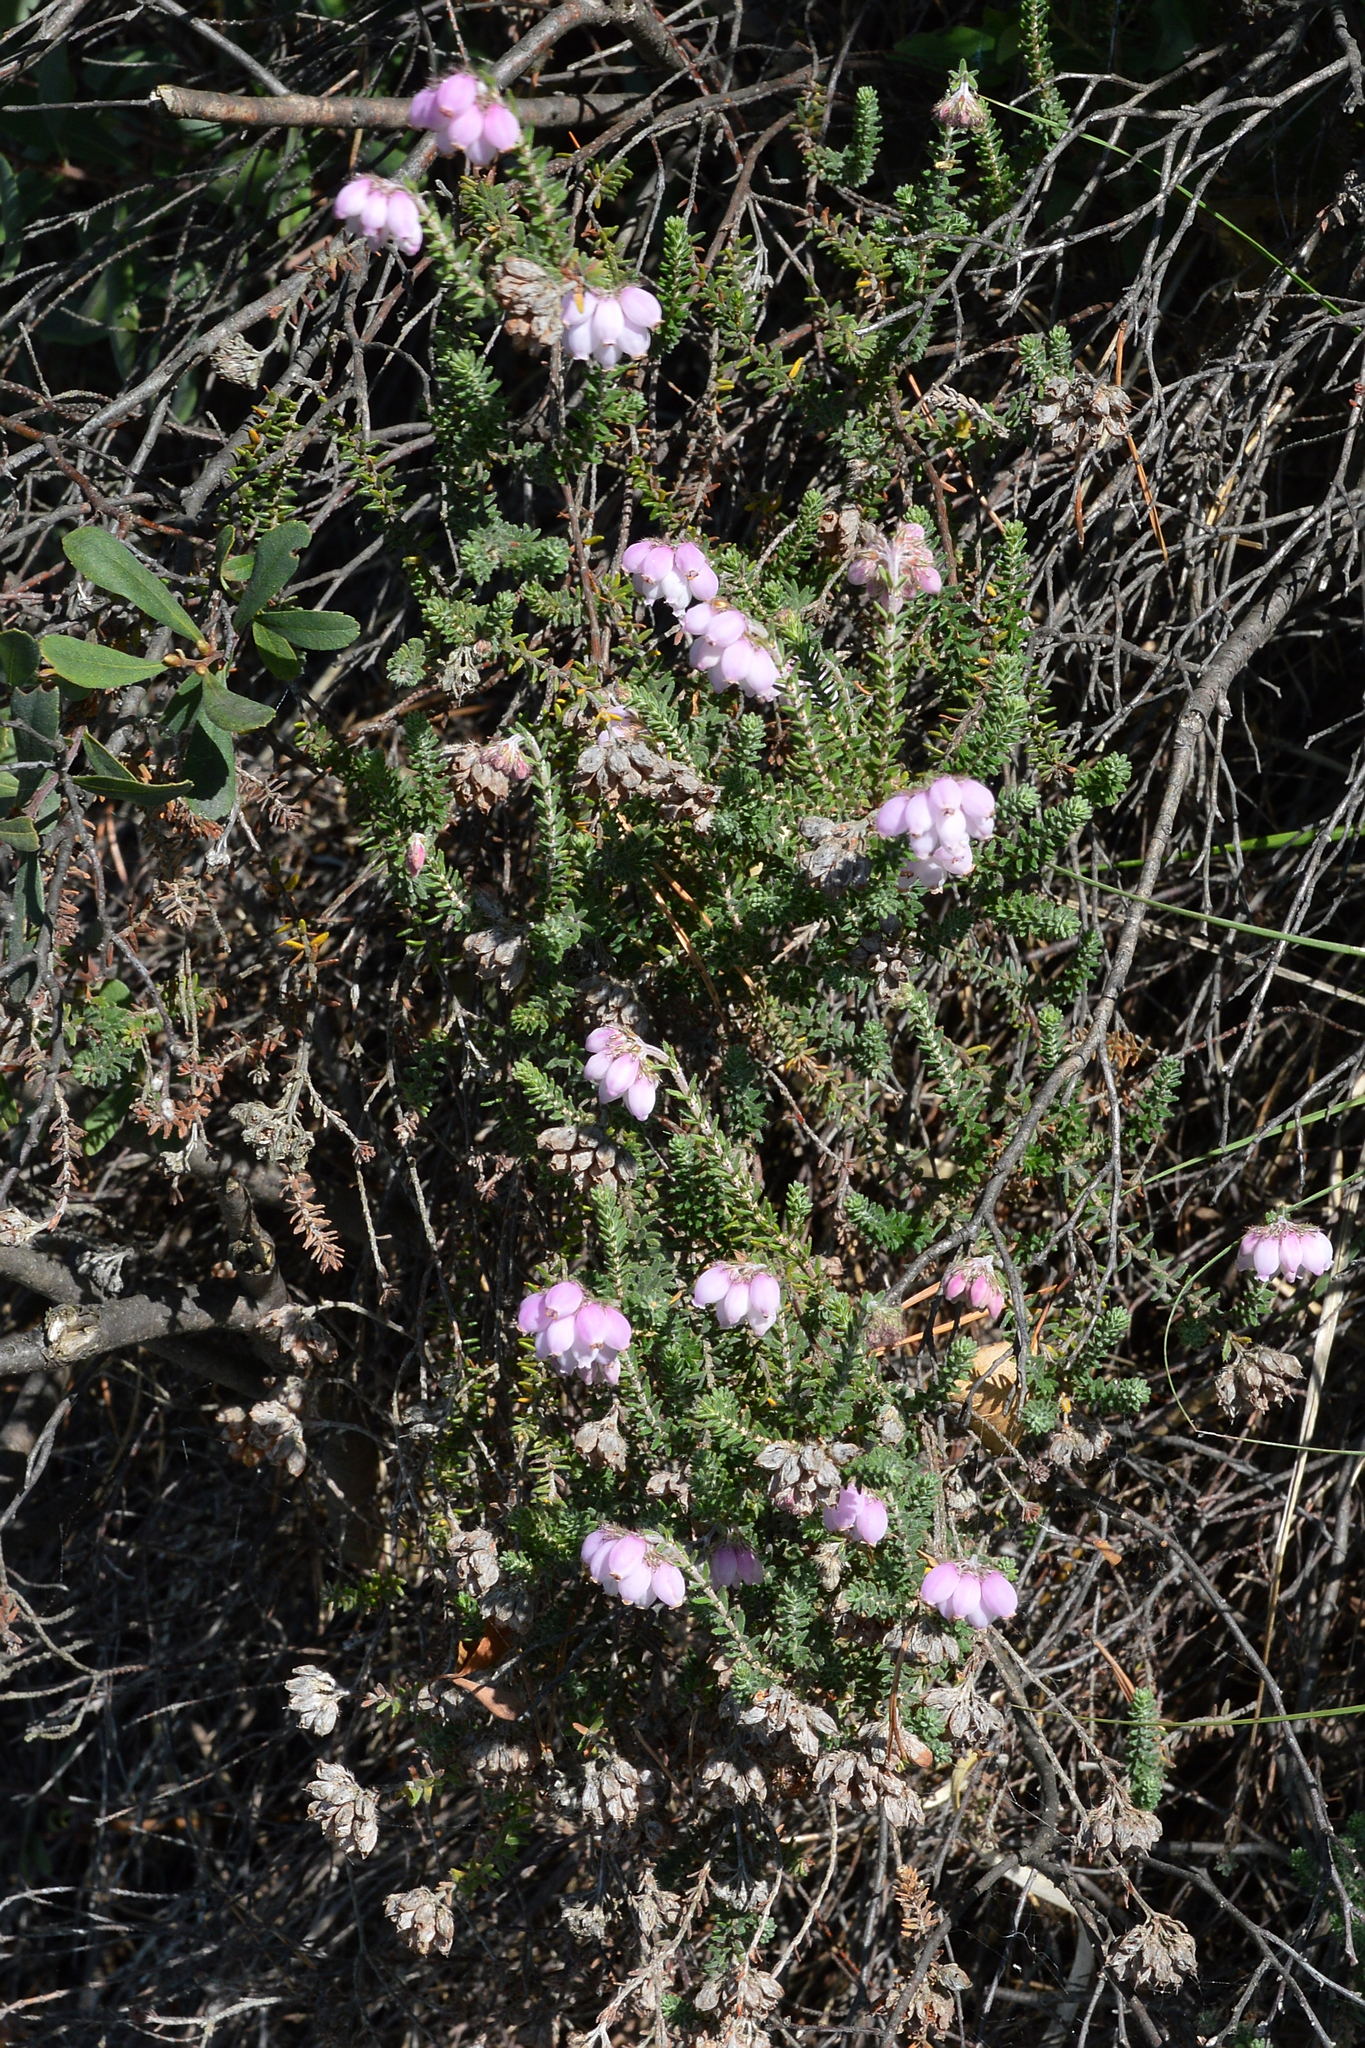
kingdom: Plantae
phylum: Tracheophyta
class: Magnoliopsida
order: Ericales
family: Ericaceae
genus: Erica
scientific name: Erica tetralix
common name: Cross-leaved heath
